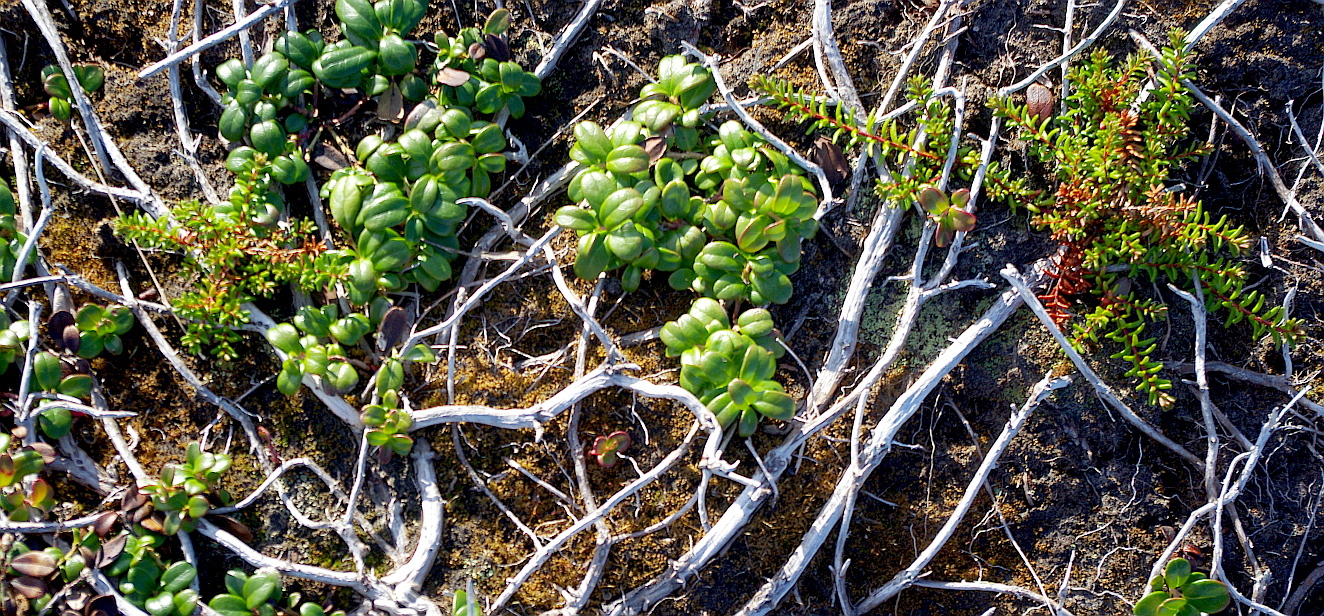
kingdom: Plantae
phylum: Tracheophyta
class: Magnoliopsida
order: Ericales
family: Ericaceae
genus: Vaccinium
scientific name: Vaccinium vitis-idaea
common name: Cowberry
